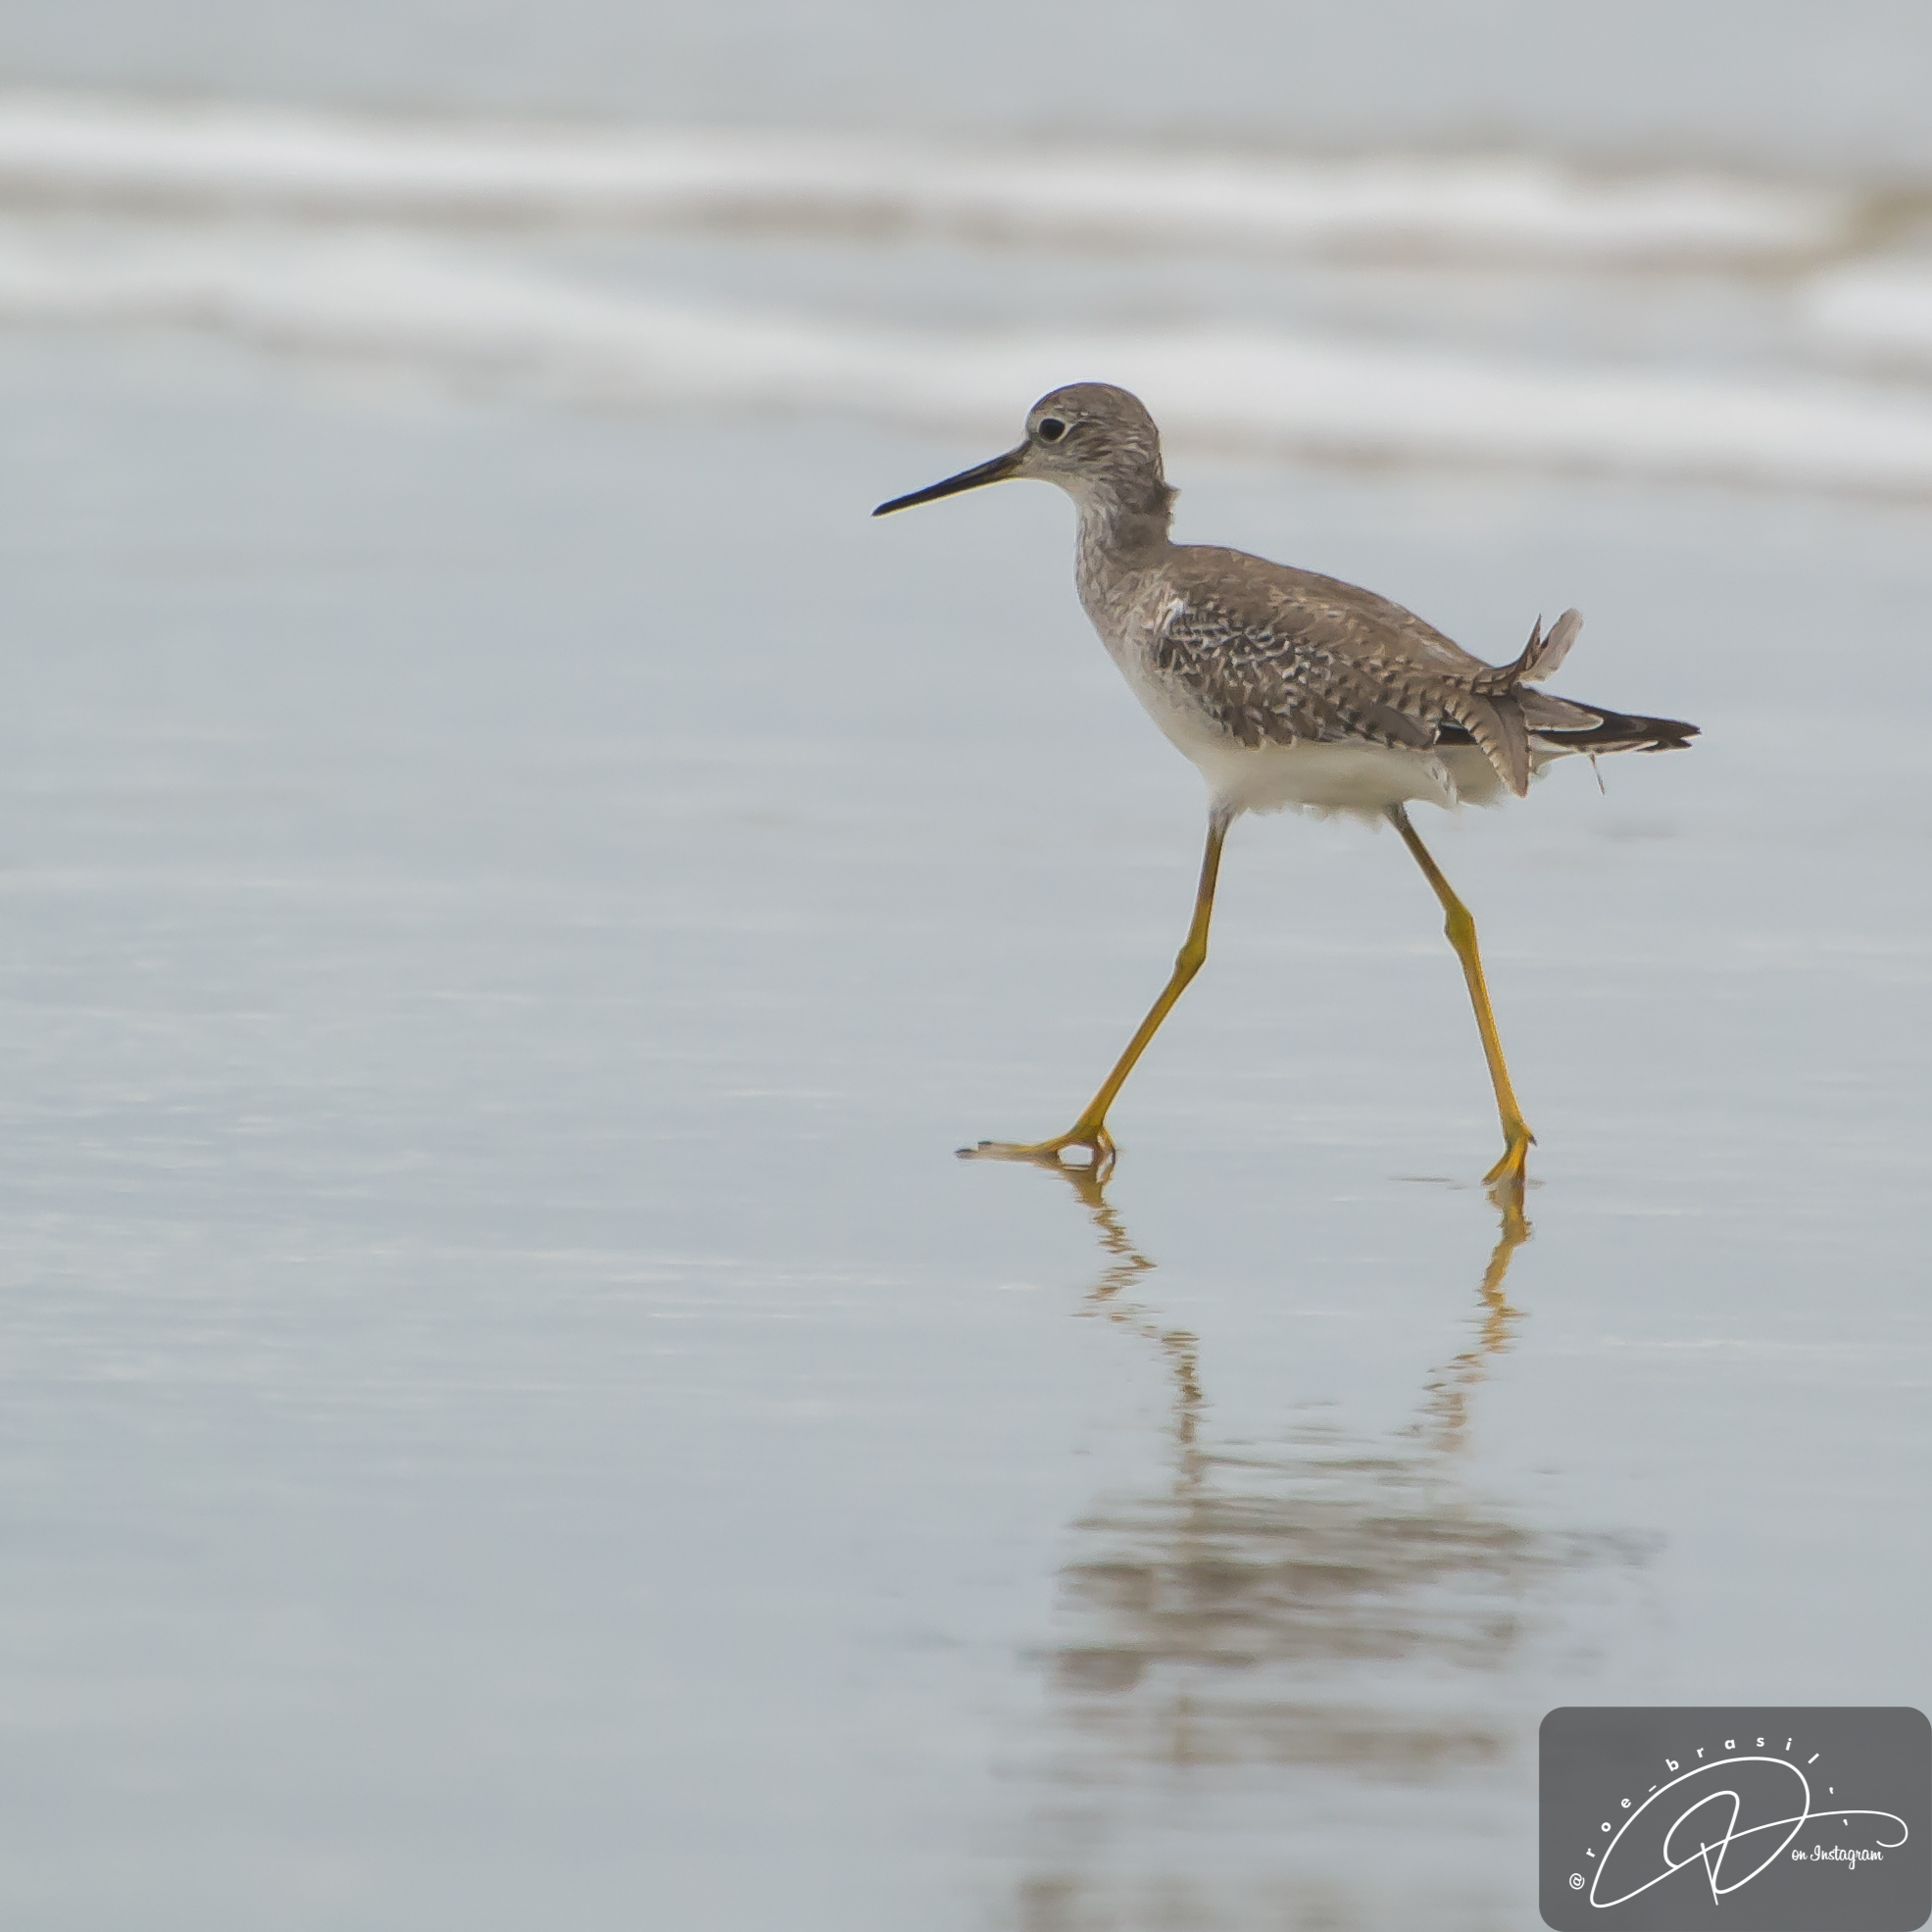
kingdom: Animalia
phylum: Chordata
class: Aves
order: Charadriiformes
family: Scolopacidae
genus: Tringa
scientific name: Tringa flavipes
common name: Lesser yellowlegs
